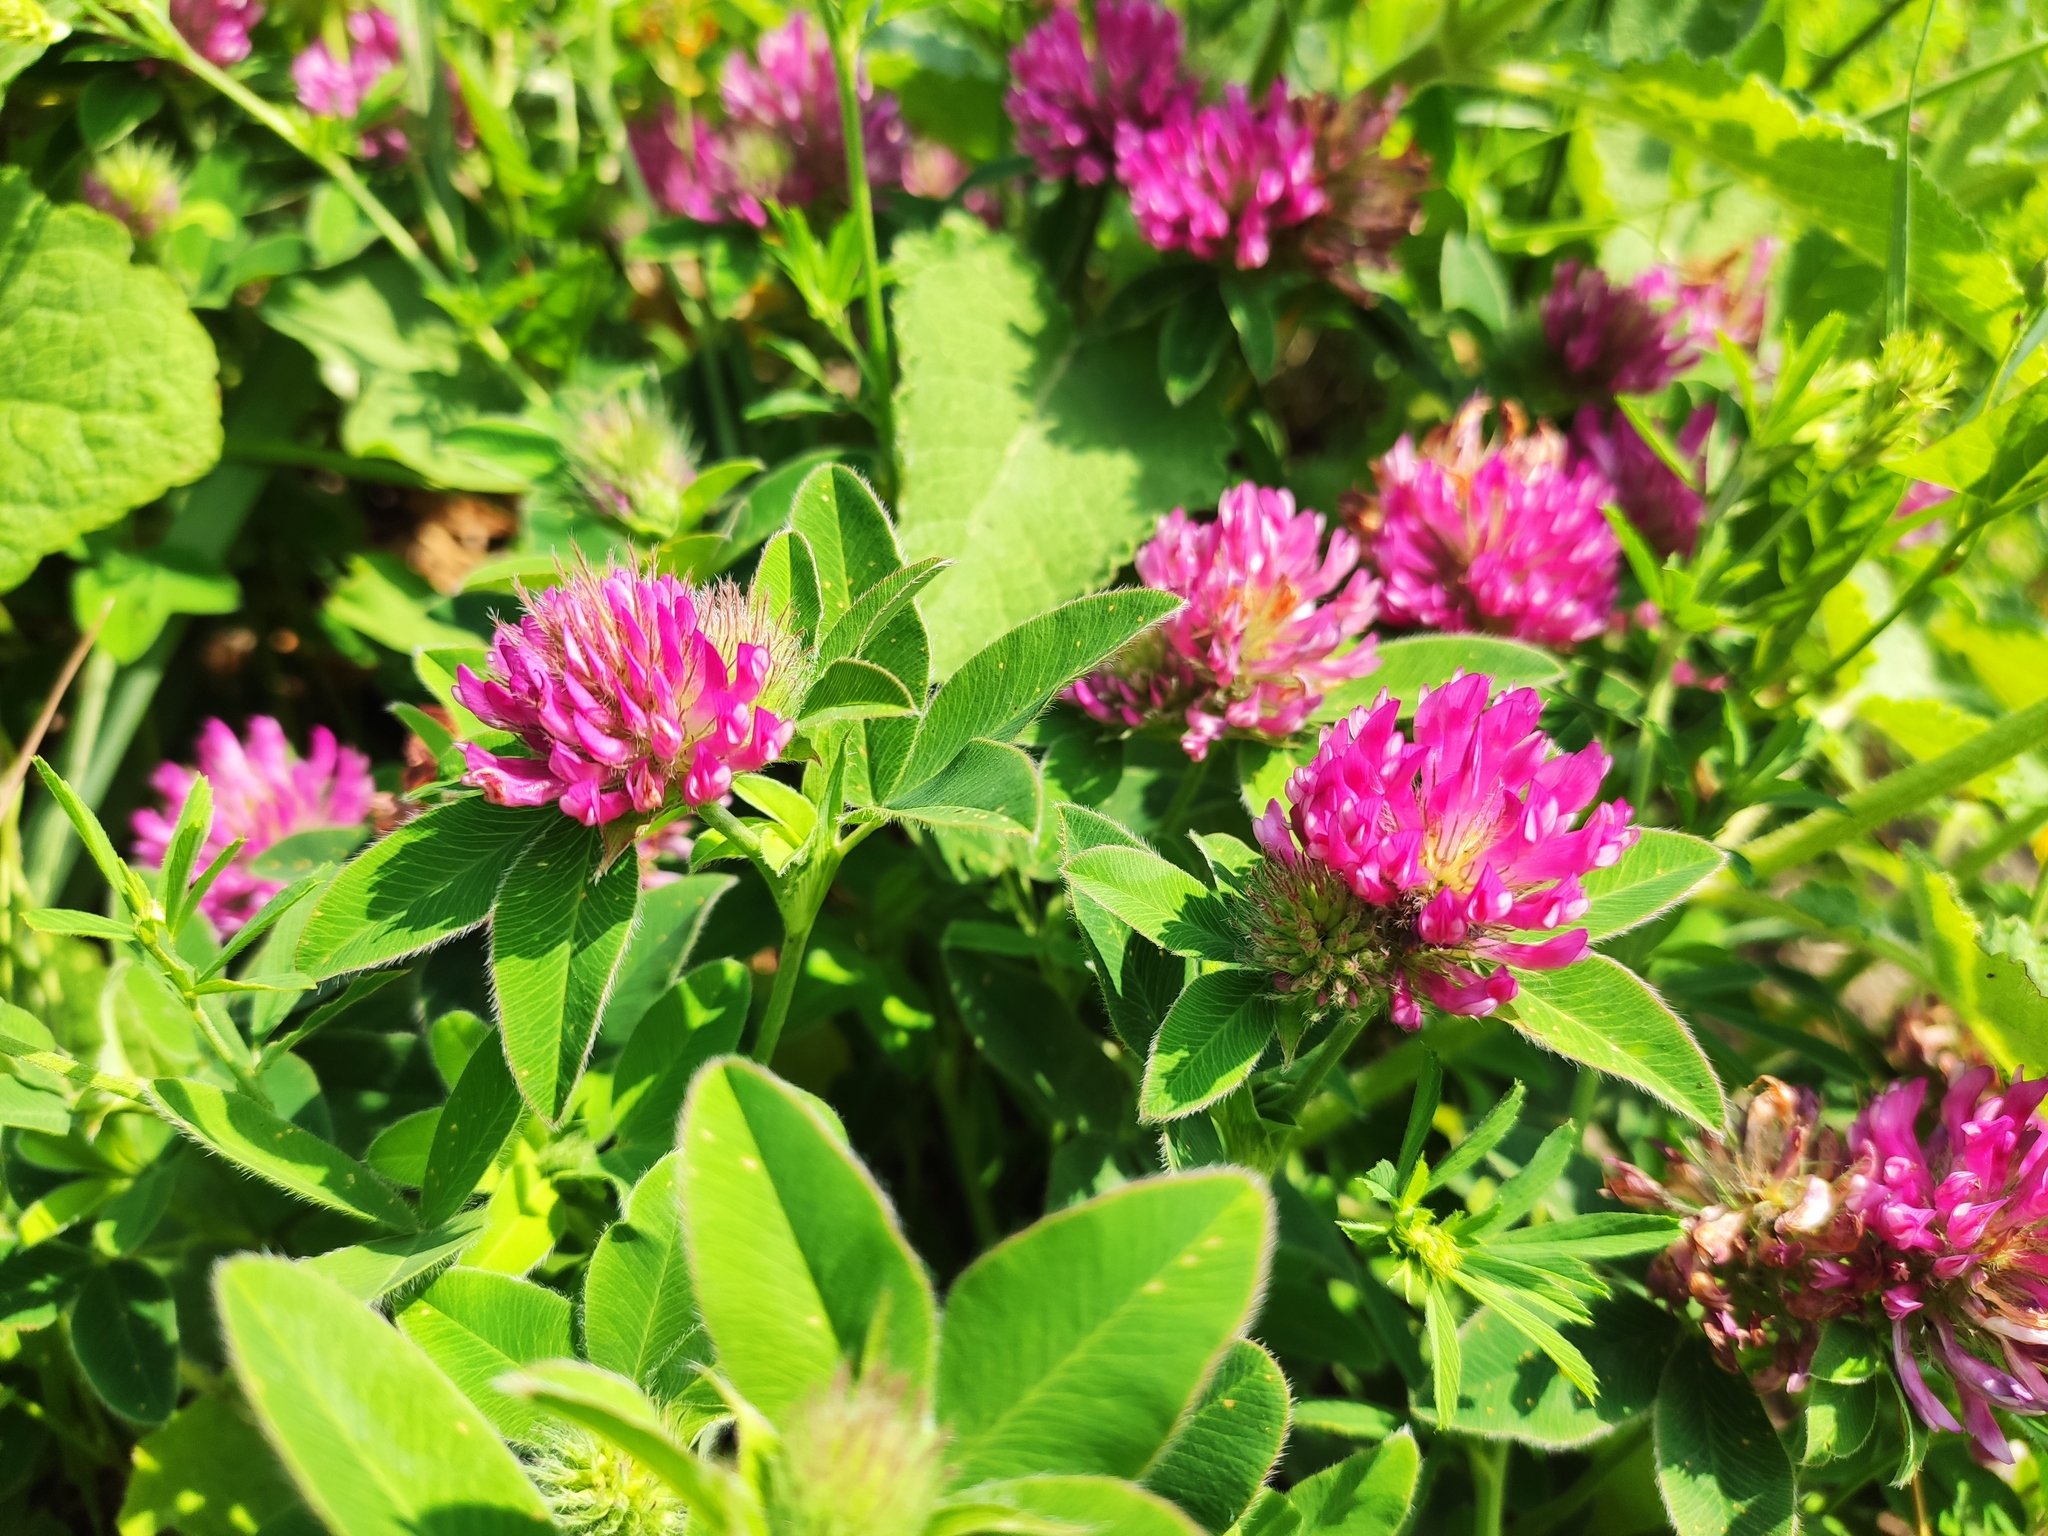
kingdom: Plantae
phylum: Tracheophyta
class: Magnoliopsida
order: Fabales
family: Fabaceae
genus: Trifolium
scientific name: Trifolium medium
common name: Zigzag clover
